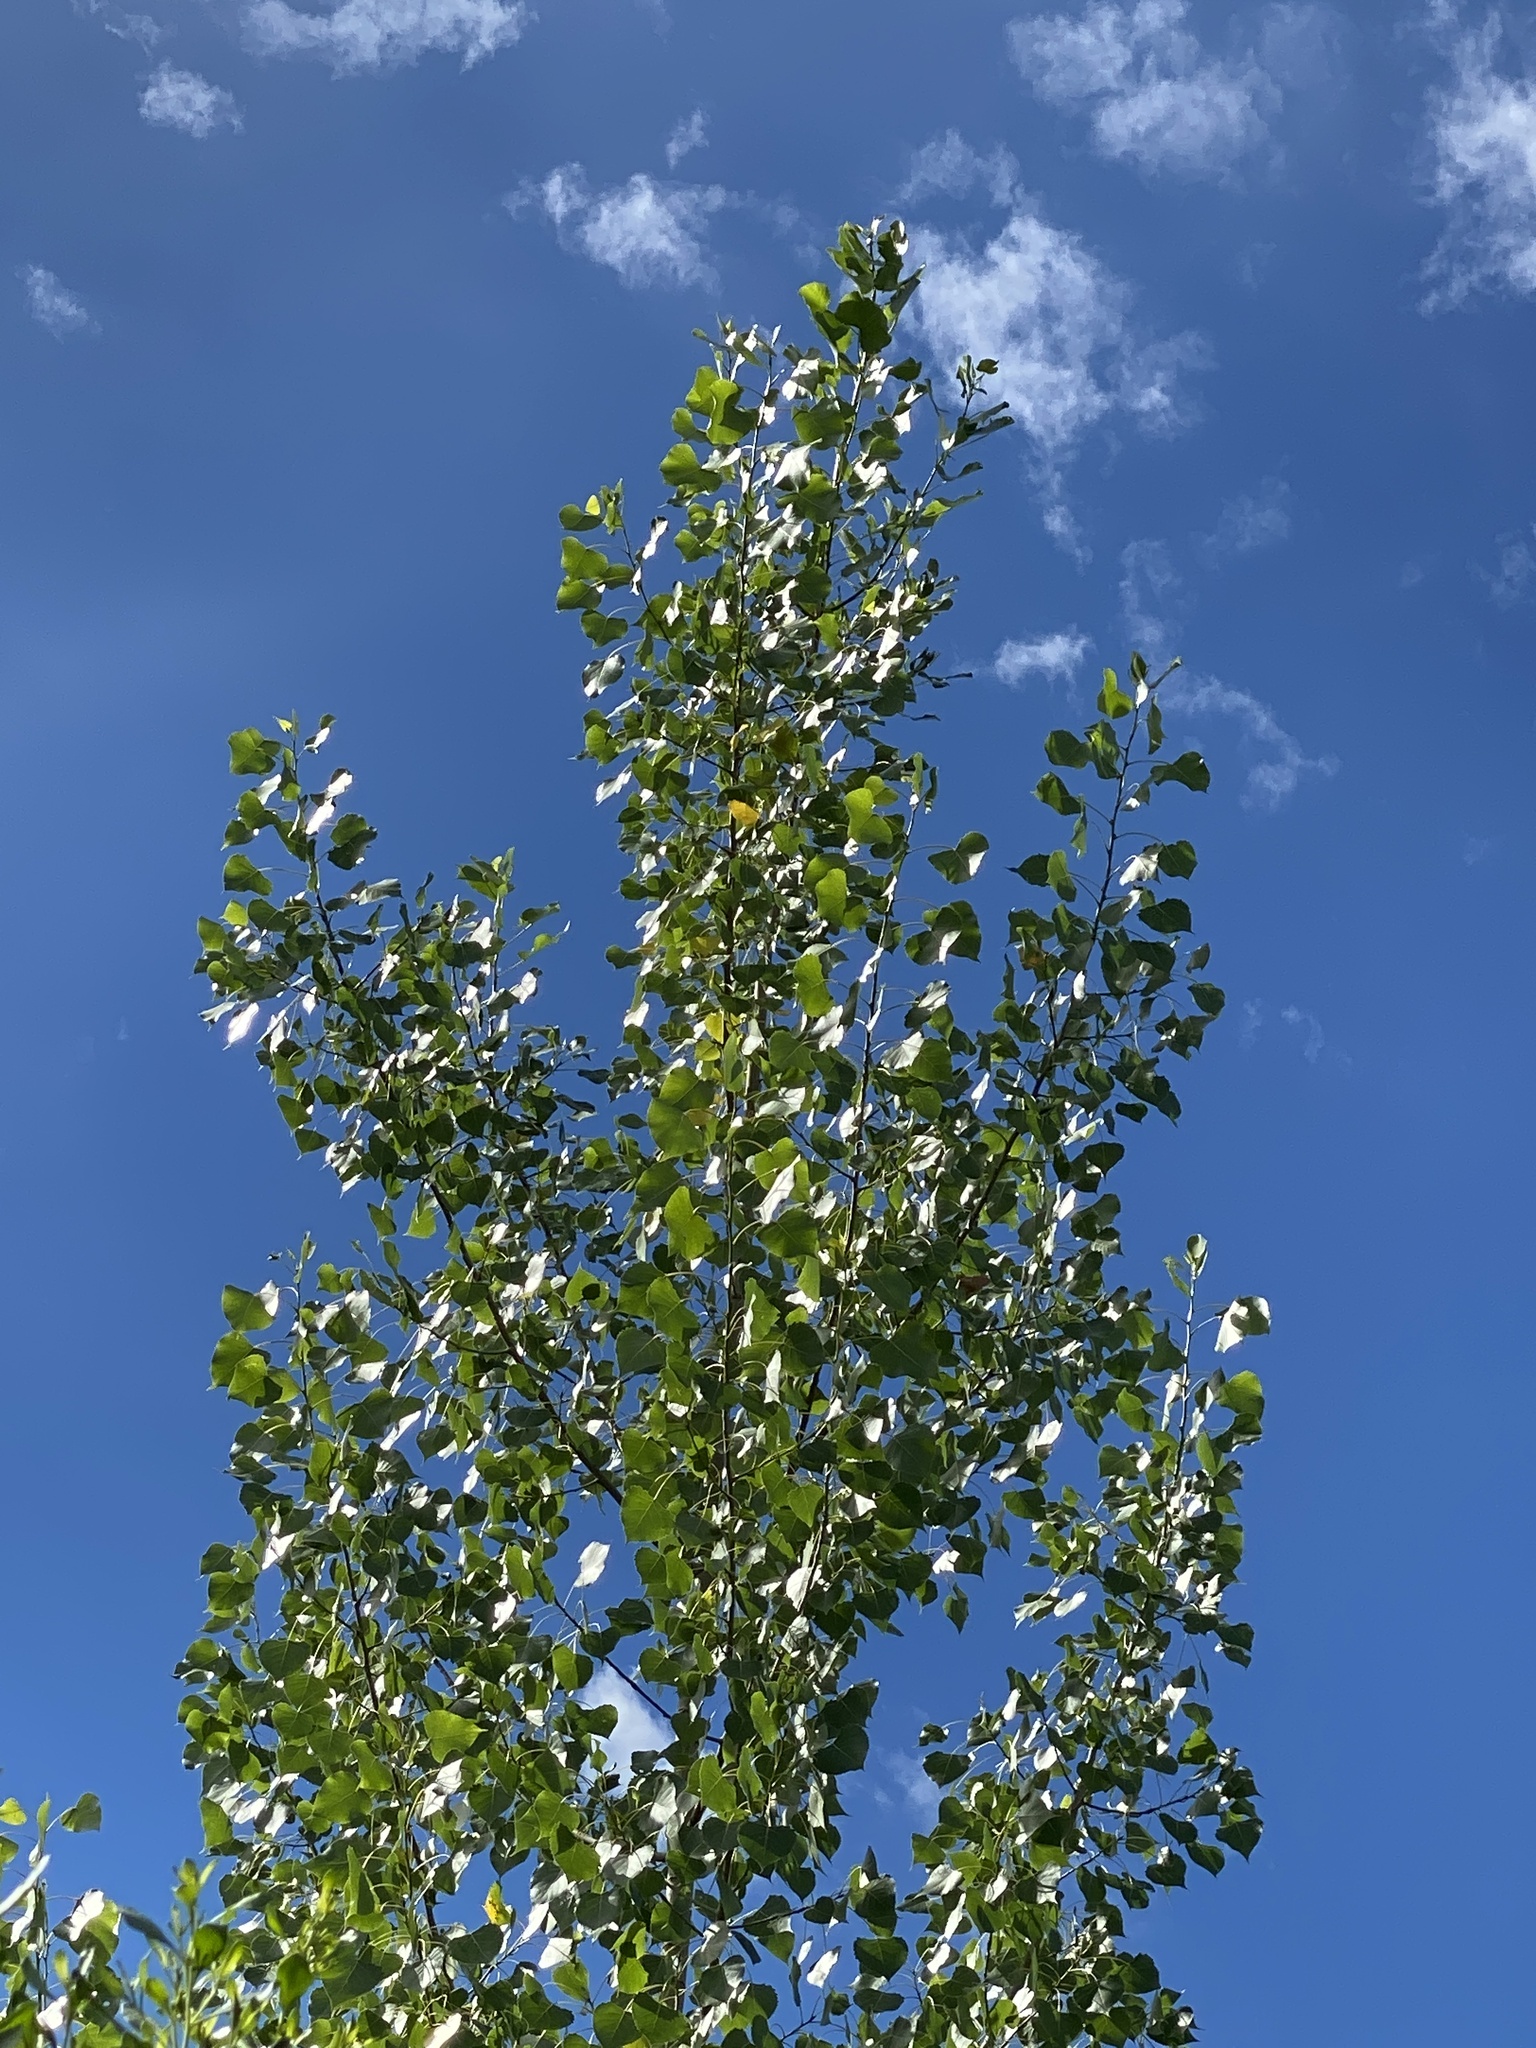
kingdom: Plantae
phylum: Tracheophyta
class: Magnoliopsida
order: Malpighiales
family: Salicaceae
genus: Populus
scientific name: Populus deltoides
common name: Eastern cottonwood
